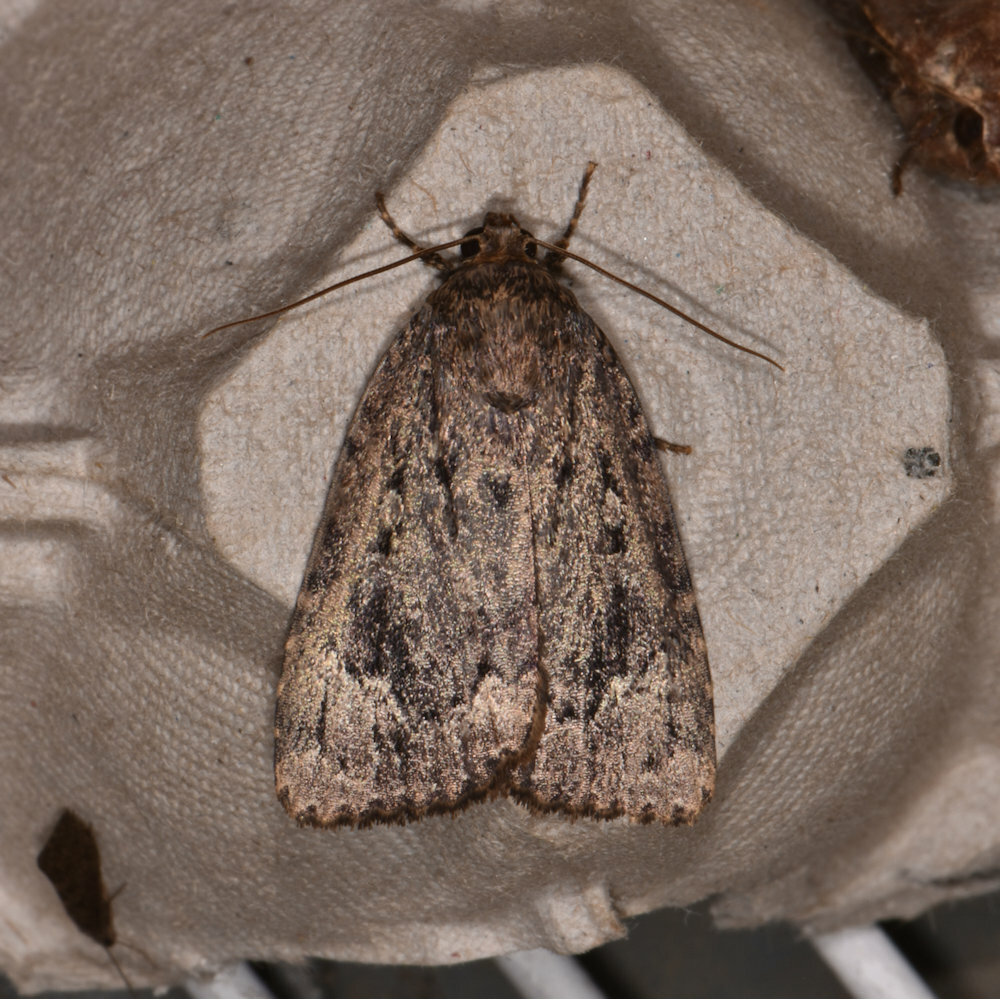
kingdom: Animalia
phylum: Arthropoda
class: Insecta
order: Lepidoptera
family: Noctuidae
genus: Amphipyra
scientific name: Amphipyra pyramidoides
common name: American copper underwing
